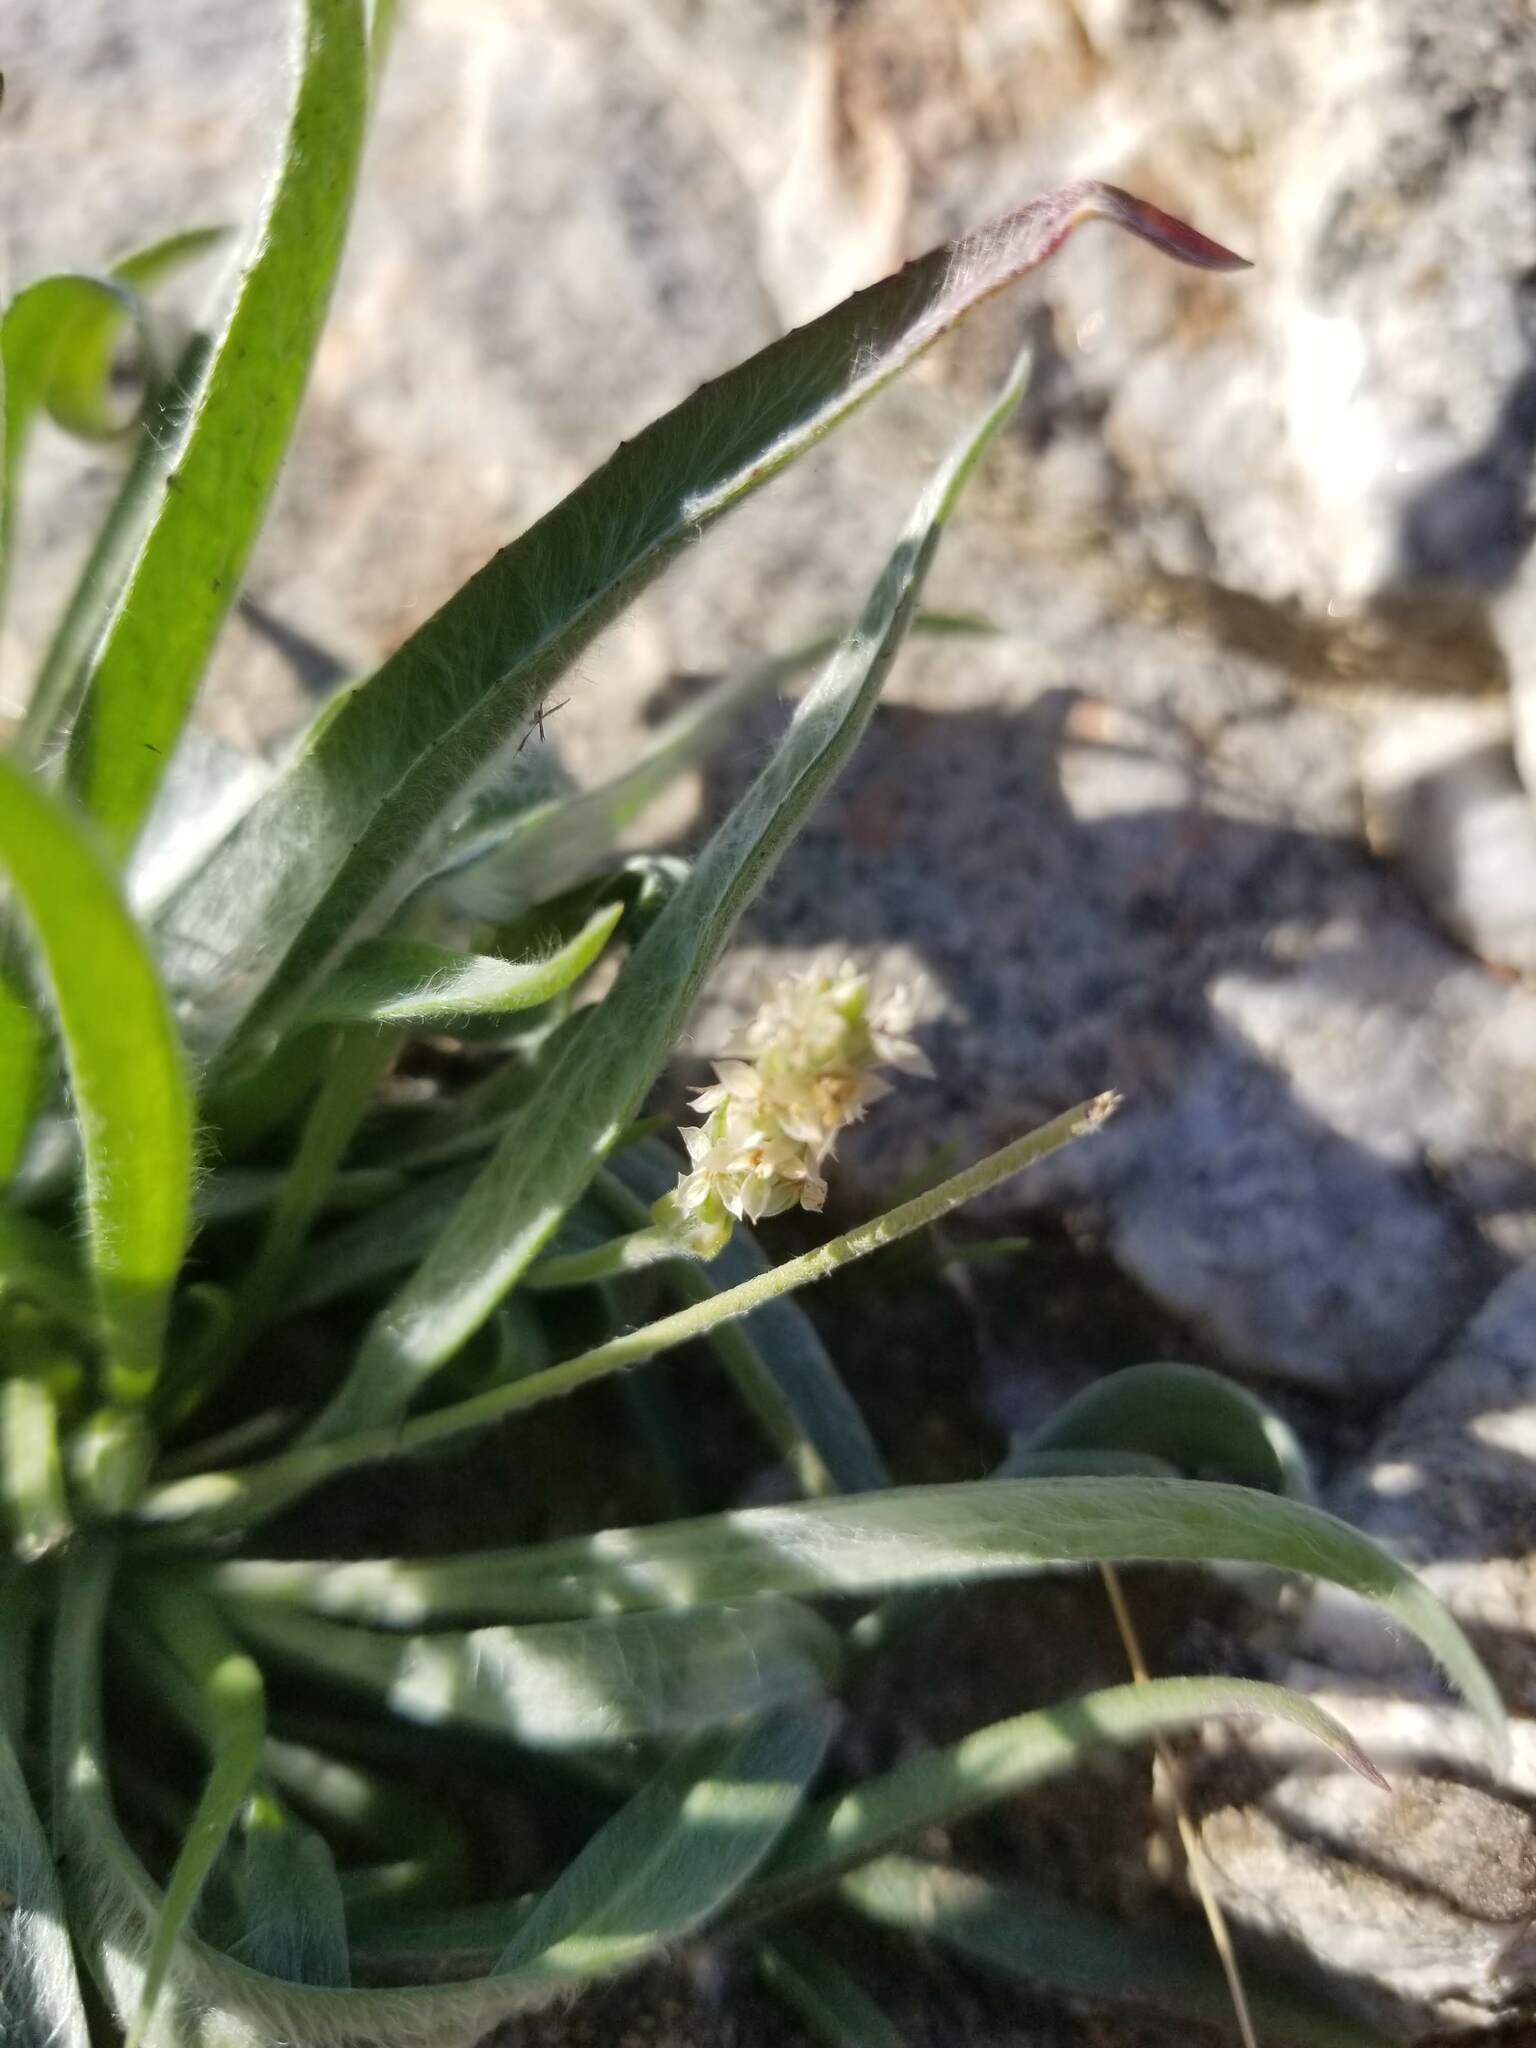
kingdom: Plantae
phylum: Tracheophyta
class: Magnoliopsida
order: Lamiales
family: Plantaginaceae
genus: Plantago
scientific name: Plantago ovata
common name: Blond plantain
